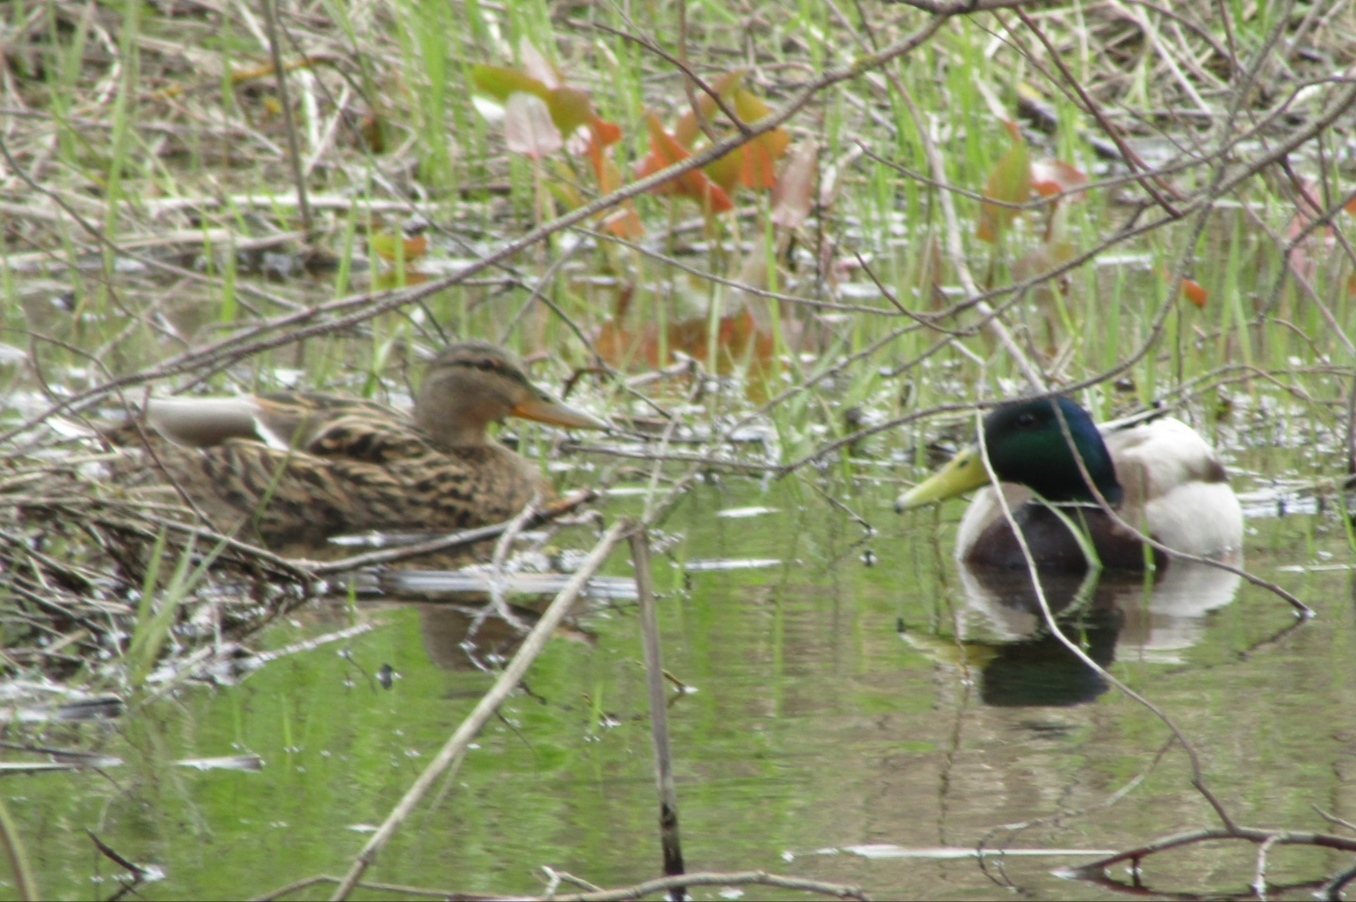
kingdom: Animalia
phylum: Chordata
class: Aves
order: Anseriformes
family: Anatidae
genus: Anas
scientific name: Anas platyrhynchos
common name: Mallard
